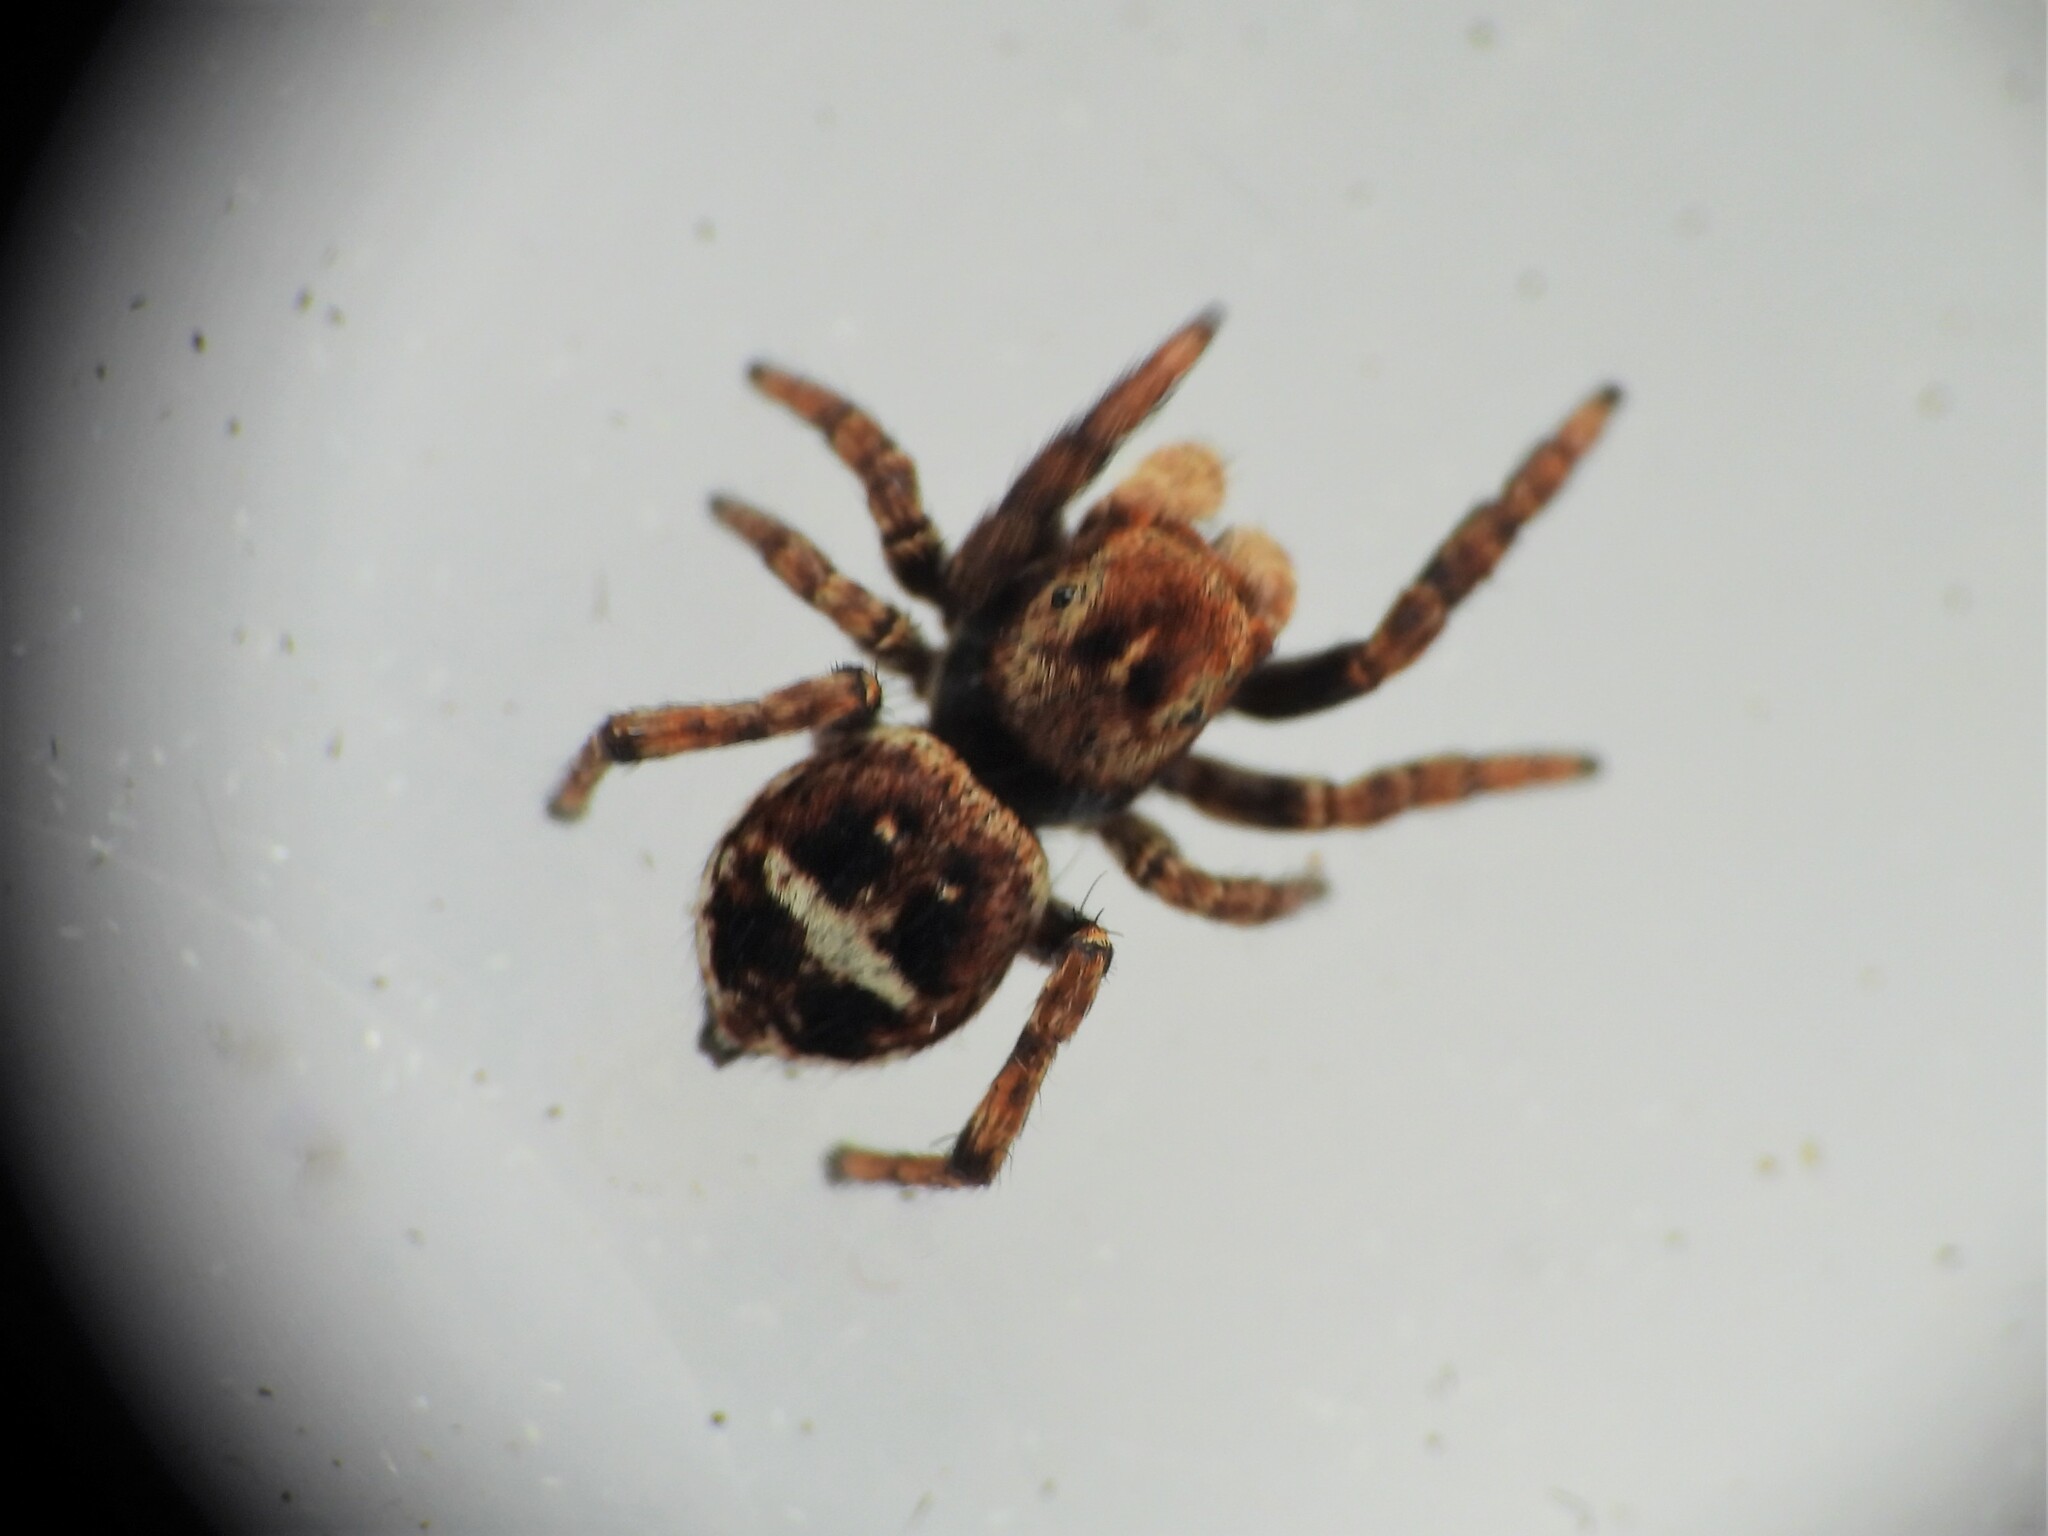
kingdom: Animalia
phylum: Arthropoda
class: Arachnida
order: Araneae
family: Salticidae
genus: Sittisax
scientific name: Sittisax saxicola
